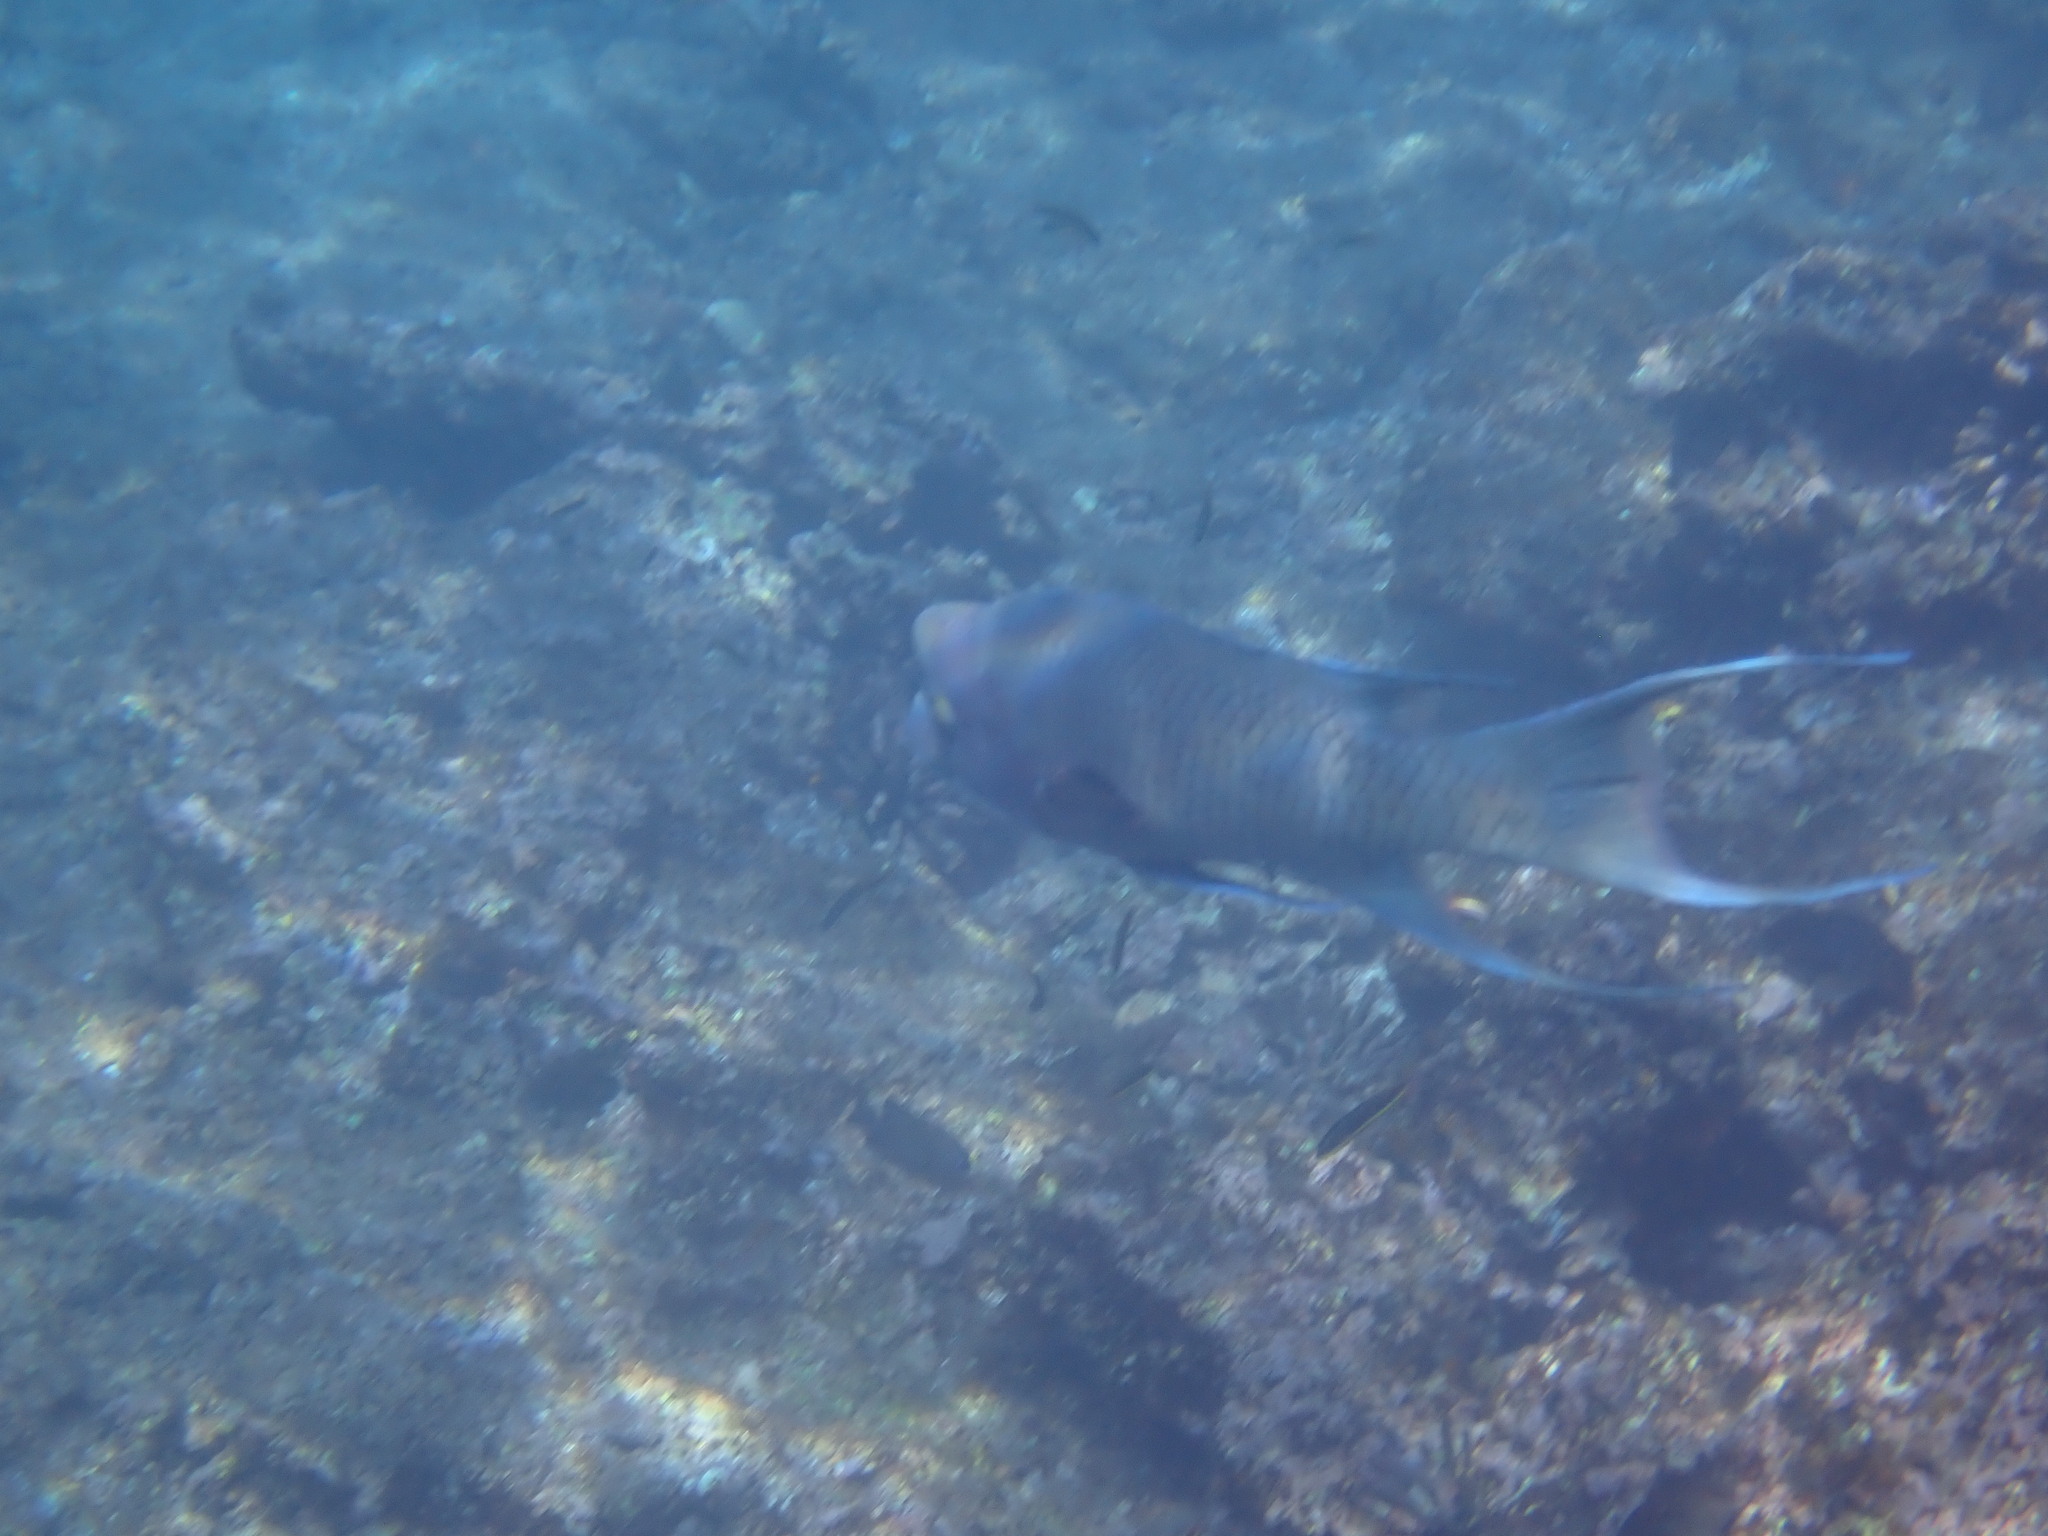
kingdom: Animalia
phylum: Chordata
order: Perciformes
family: Labridae
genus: Bodianus
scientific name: Bodianus diplotaenia
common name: Mexican hogfish
